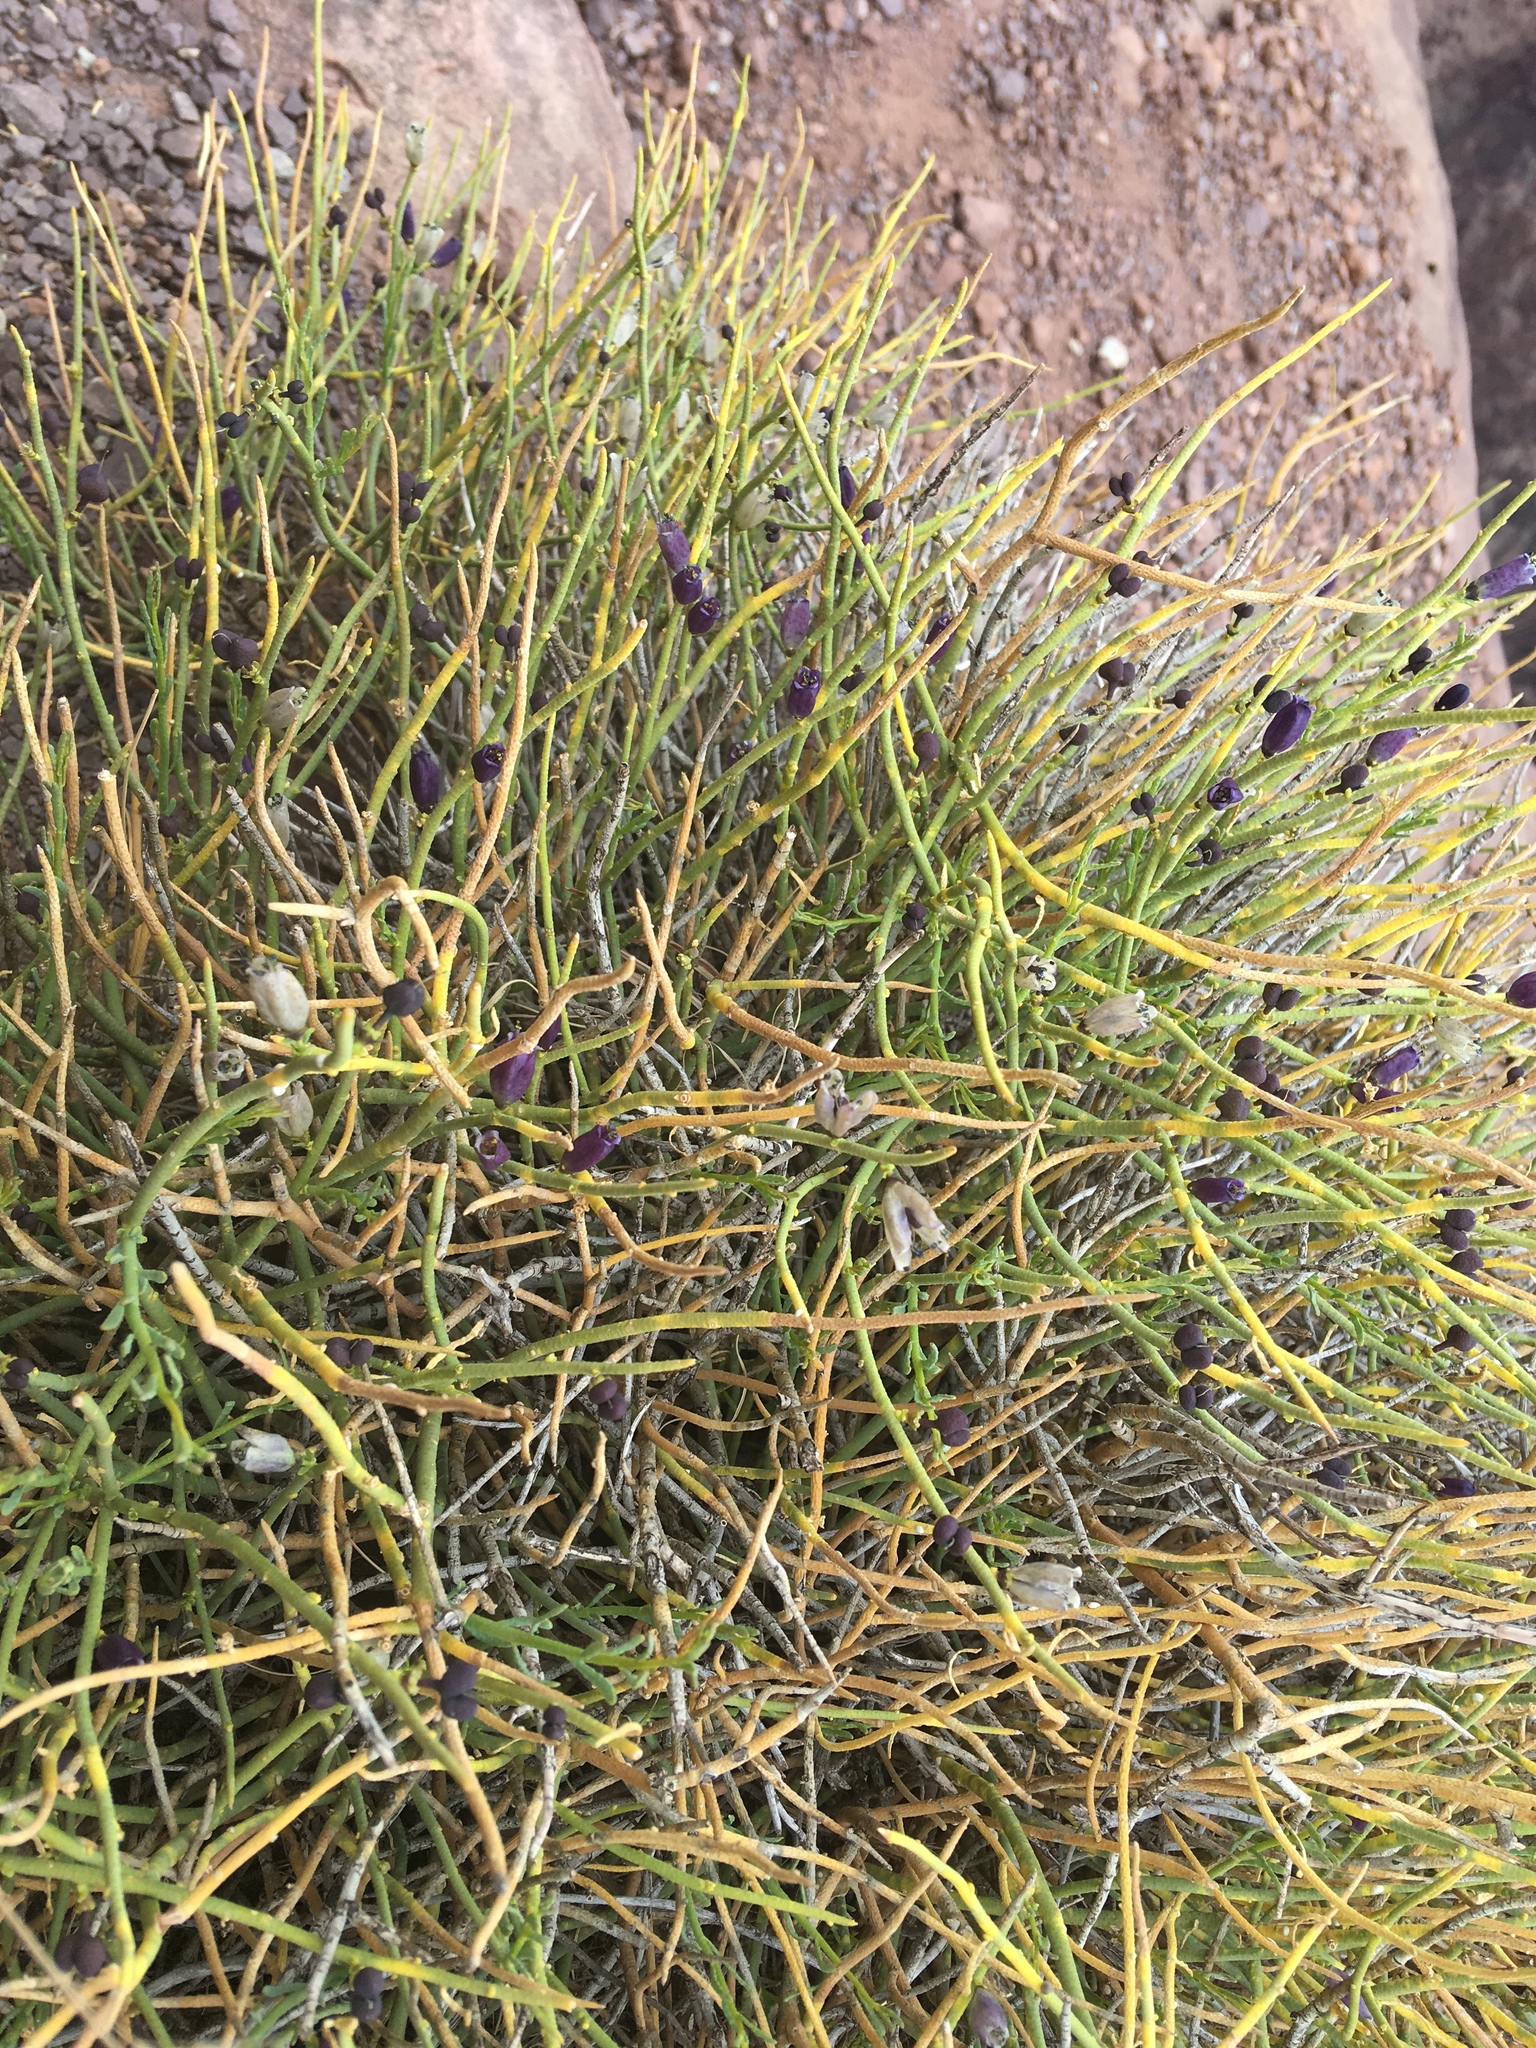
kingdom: Plantae
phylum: Tracheophyta
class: Magnoliopsida
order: Sapindales
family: Rutaceae
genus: Thamnosma
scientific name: Thamnosma montana
